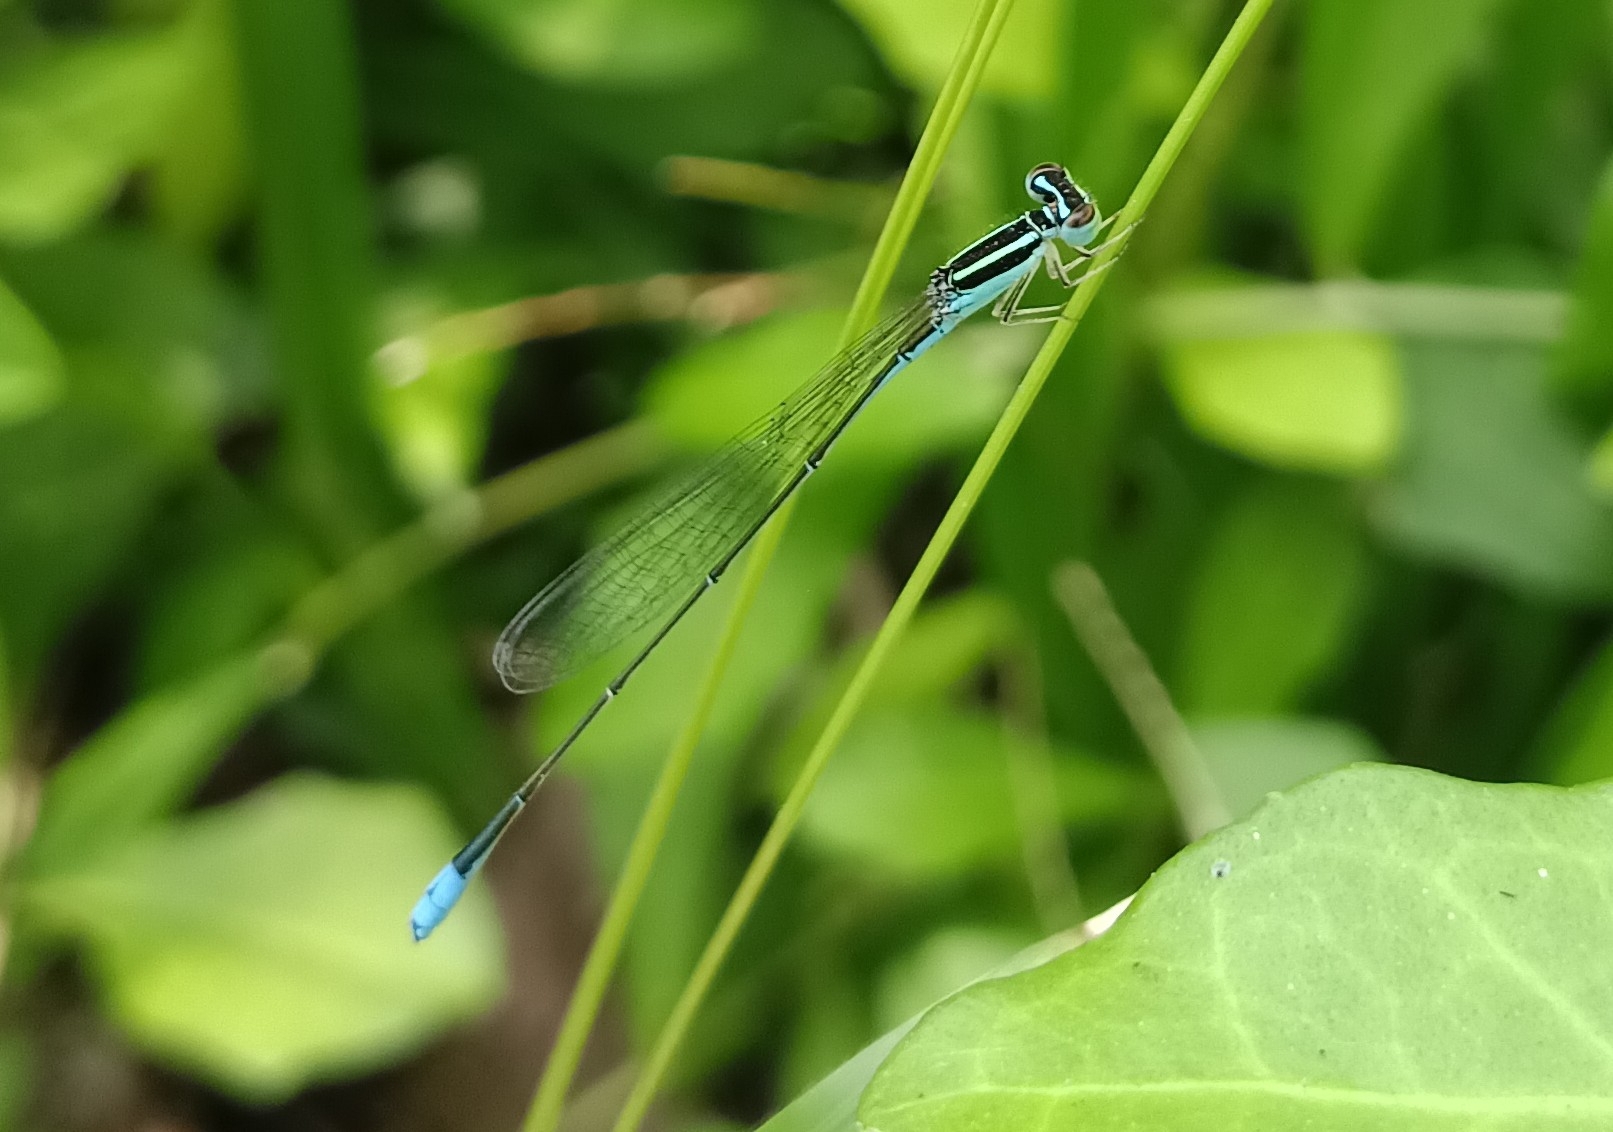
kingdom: Animalia
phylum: Arthropoda
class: Insecta
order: Odonata
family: Coenagrionidae
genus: Aciagrion
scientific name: Aciagrion occidentale
